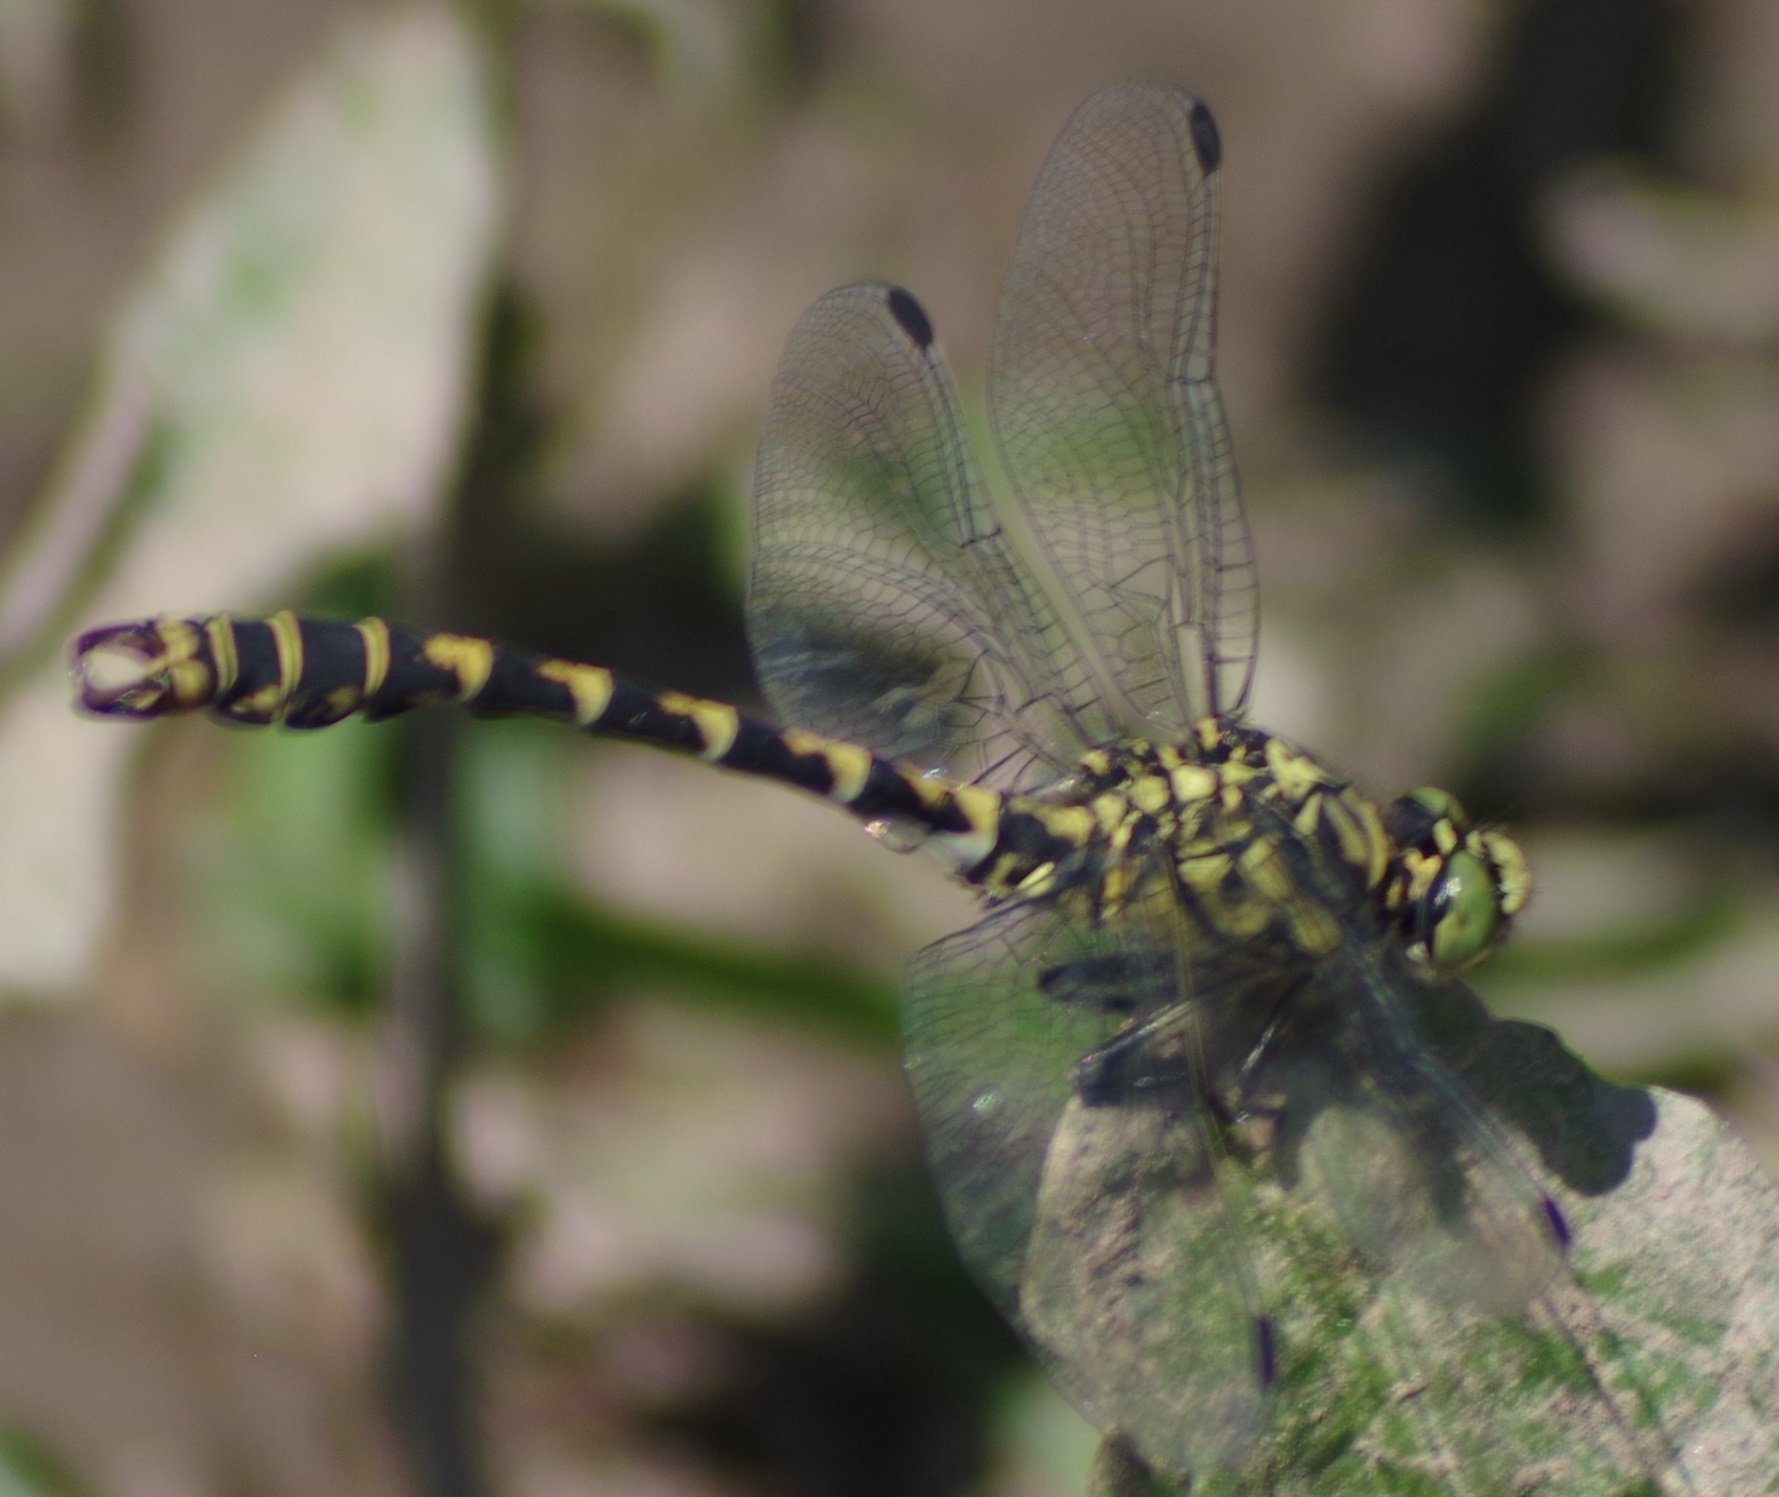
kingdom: Animalia
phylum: Arthropoda
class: Insecta
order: Odonata
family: Gomphidae
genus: Onychogomphus
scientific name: Onychogomphus forcipatus
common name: Small pincertail
